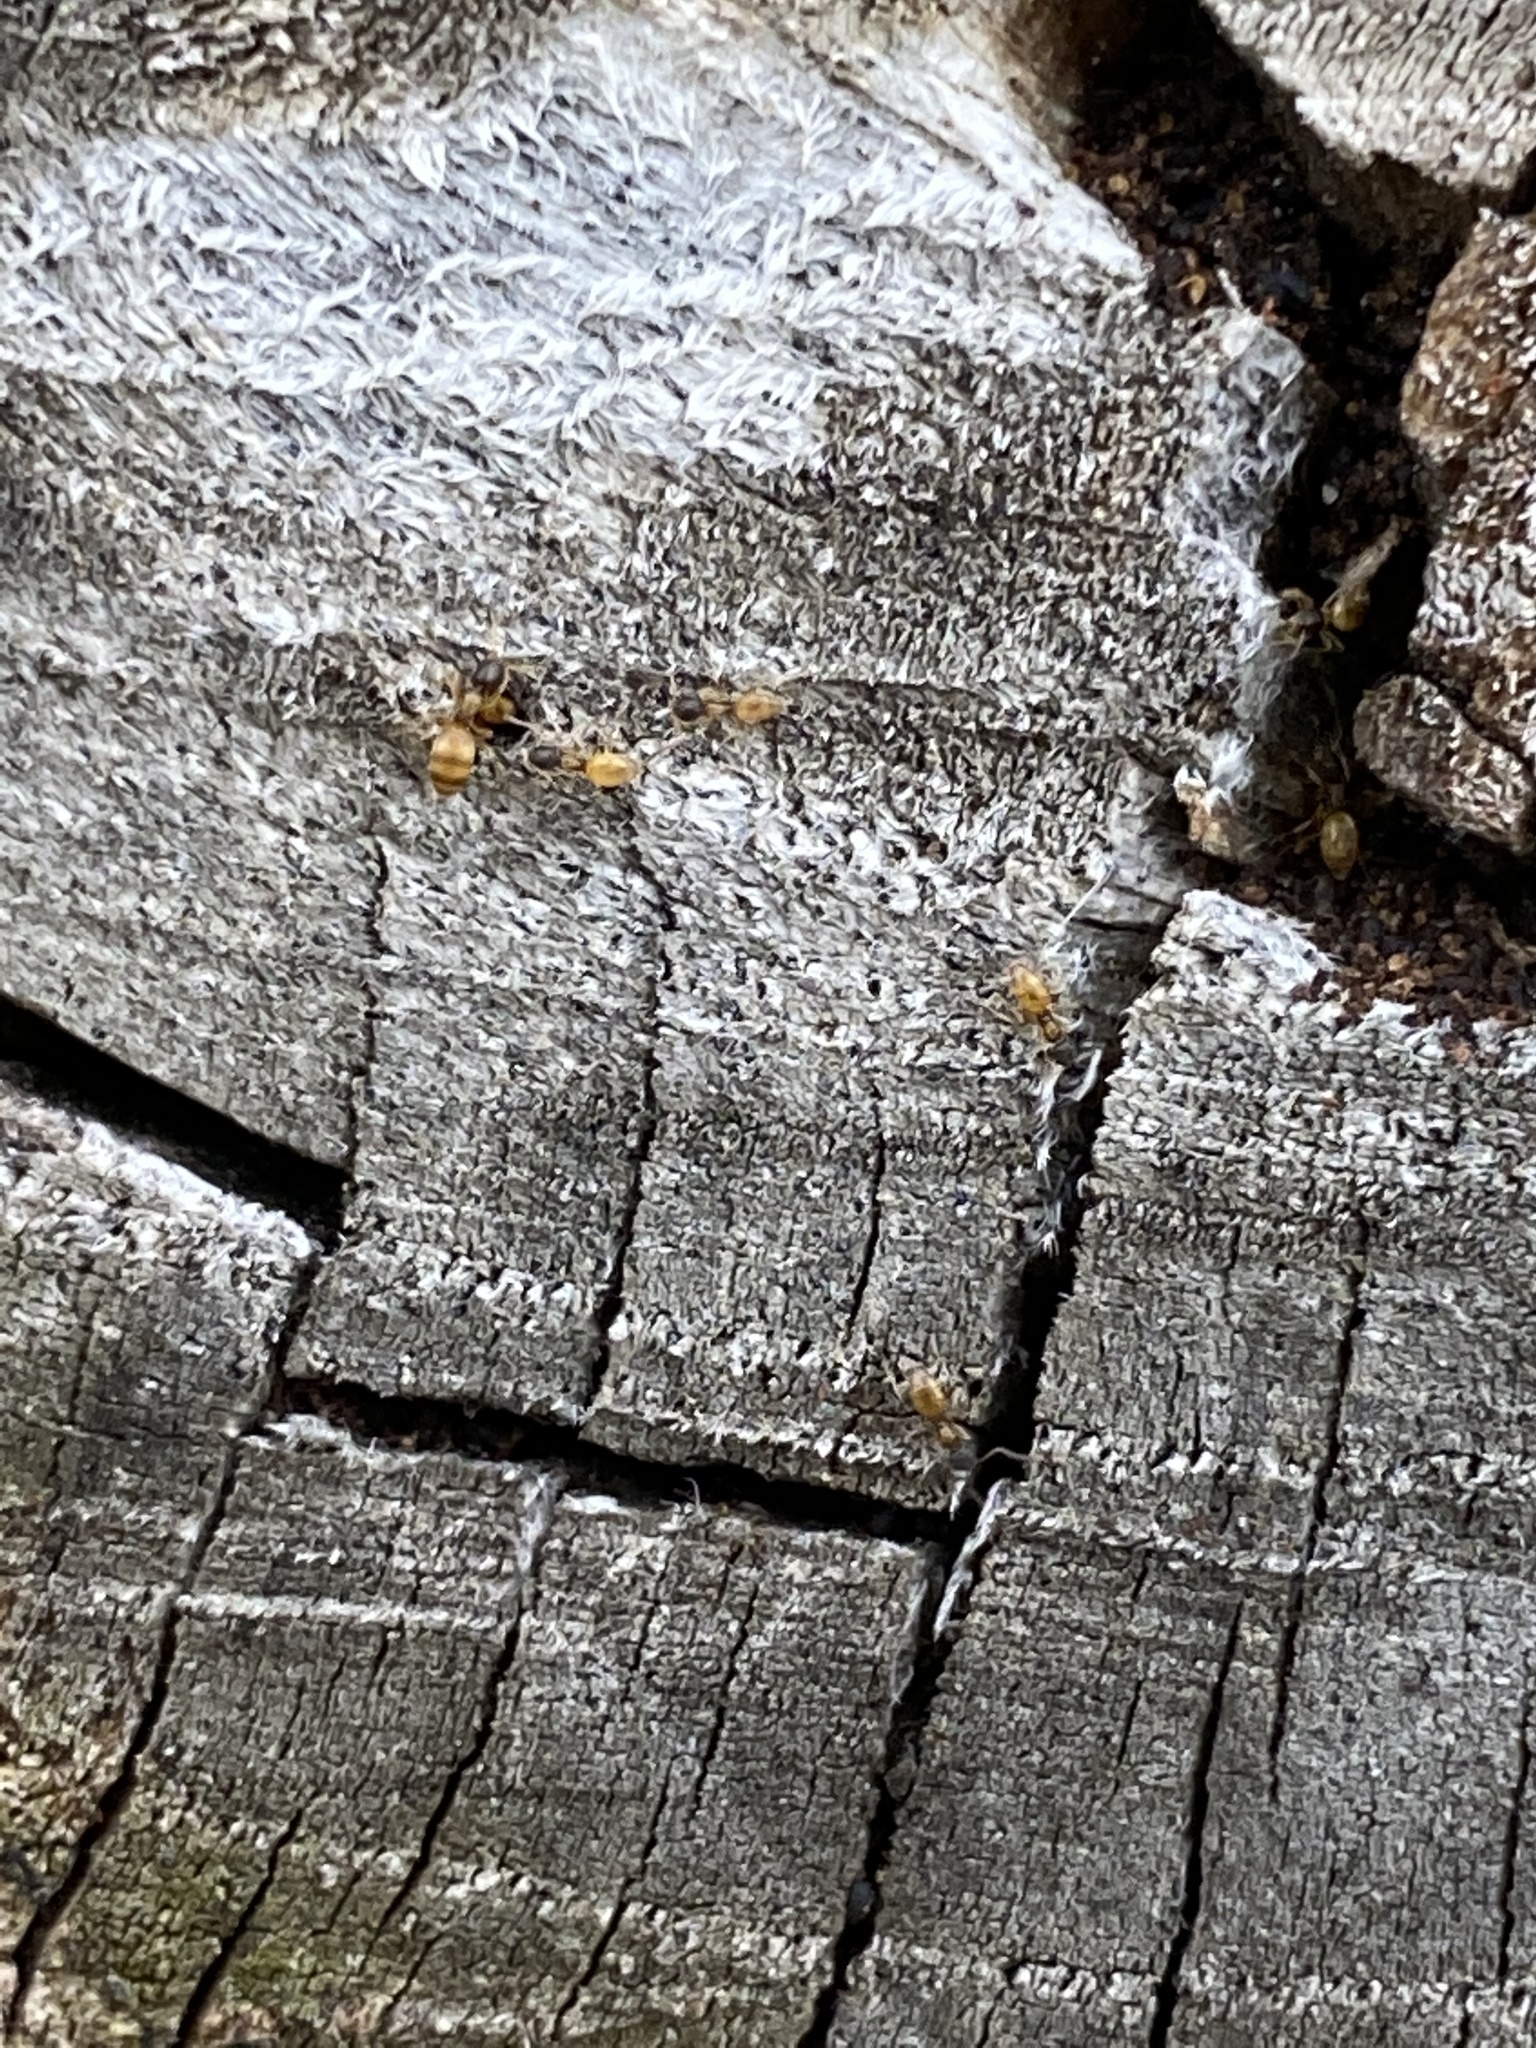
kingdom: Animalia
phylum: Arthropoda
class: Insecta
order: Hymenoptera
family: Formicidae
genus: Tapinoma
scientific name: Tapinoma melanocephalum
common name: Ghost ant
